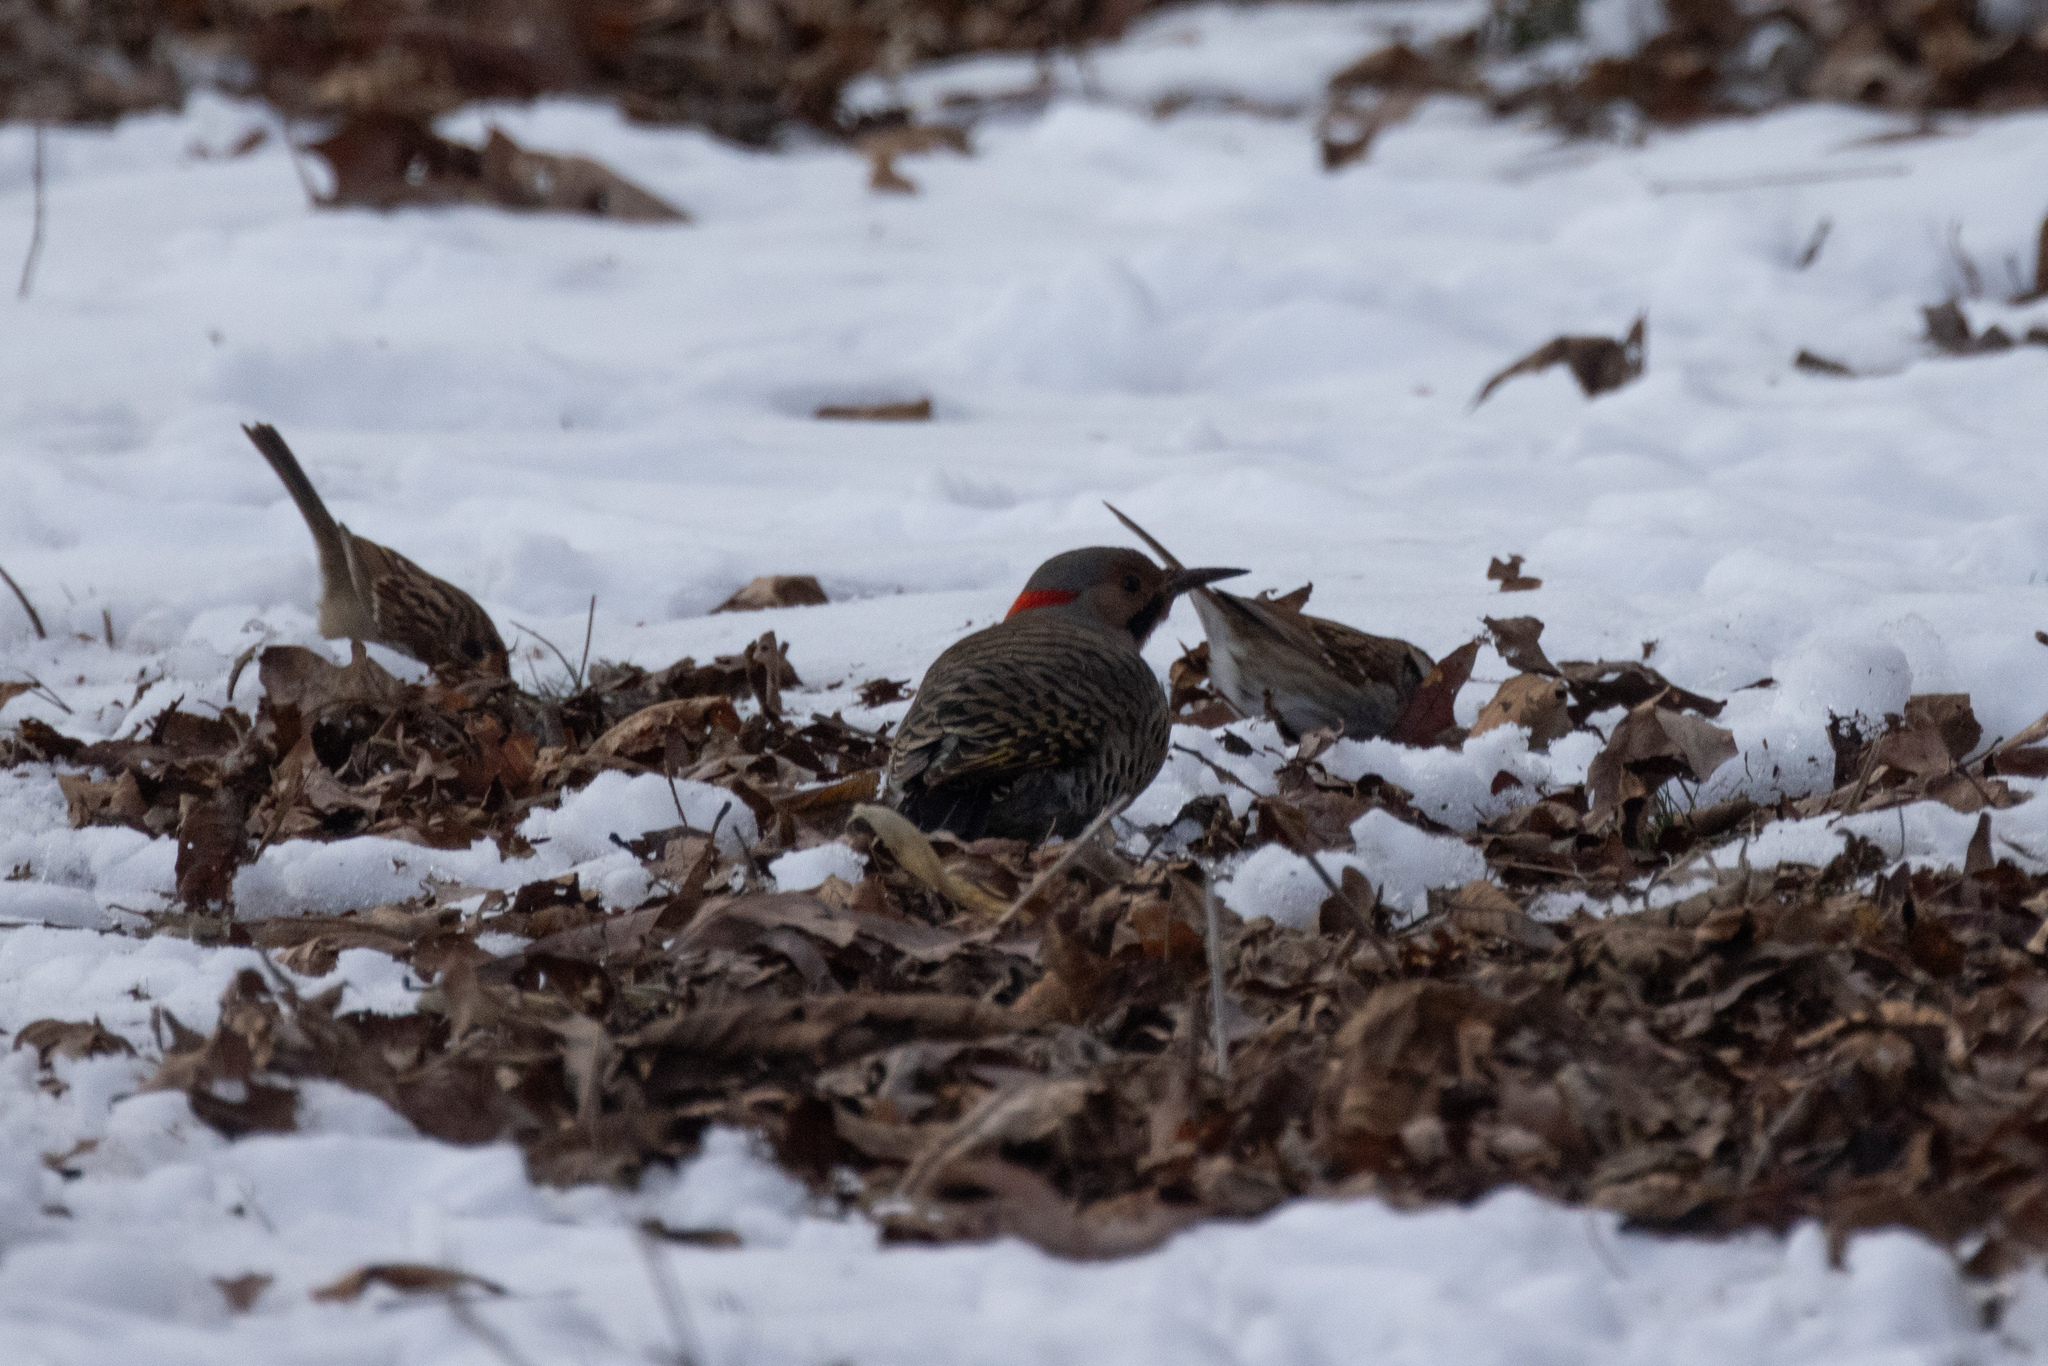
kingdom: Animalia
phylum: Chordata
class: Aves
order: Piciformes
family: Picidae
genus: Colaptes
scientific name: Colaptes auratus
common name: Northern flicker
